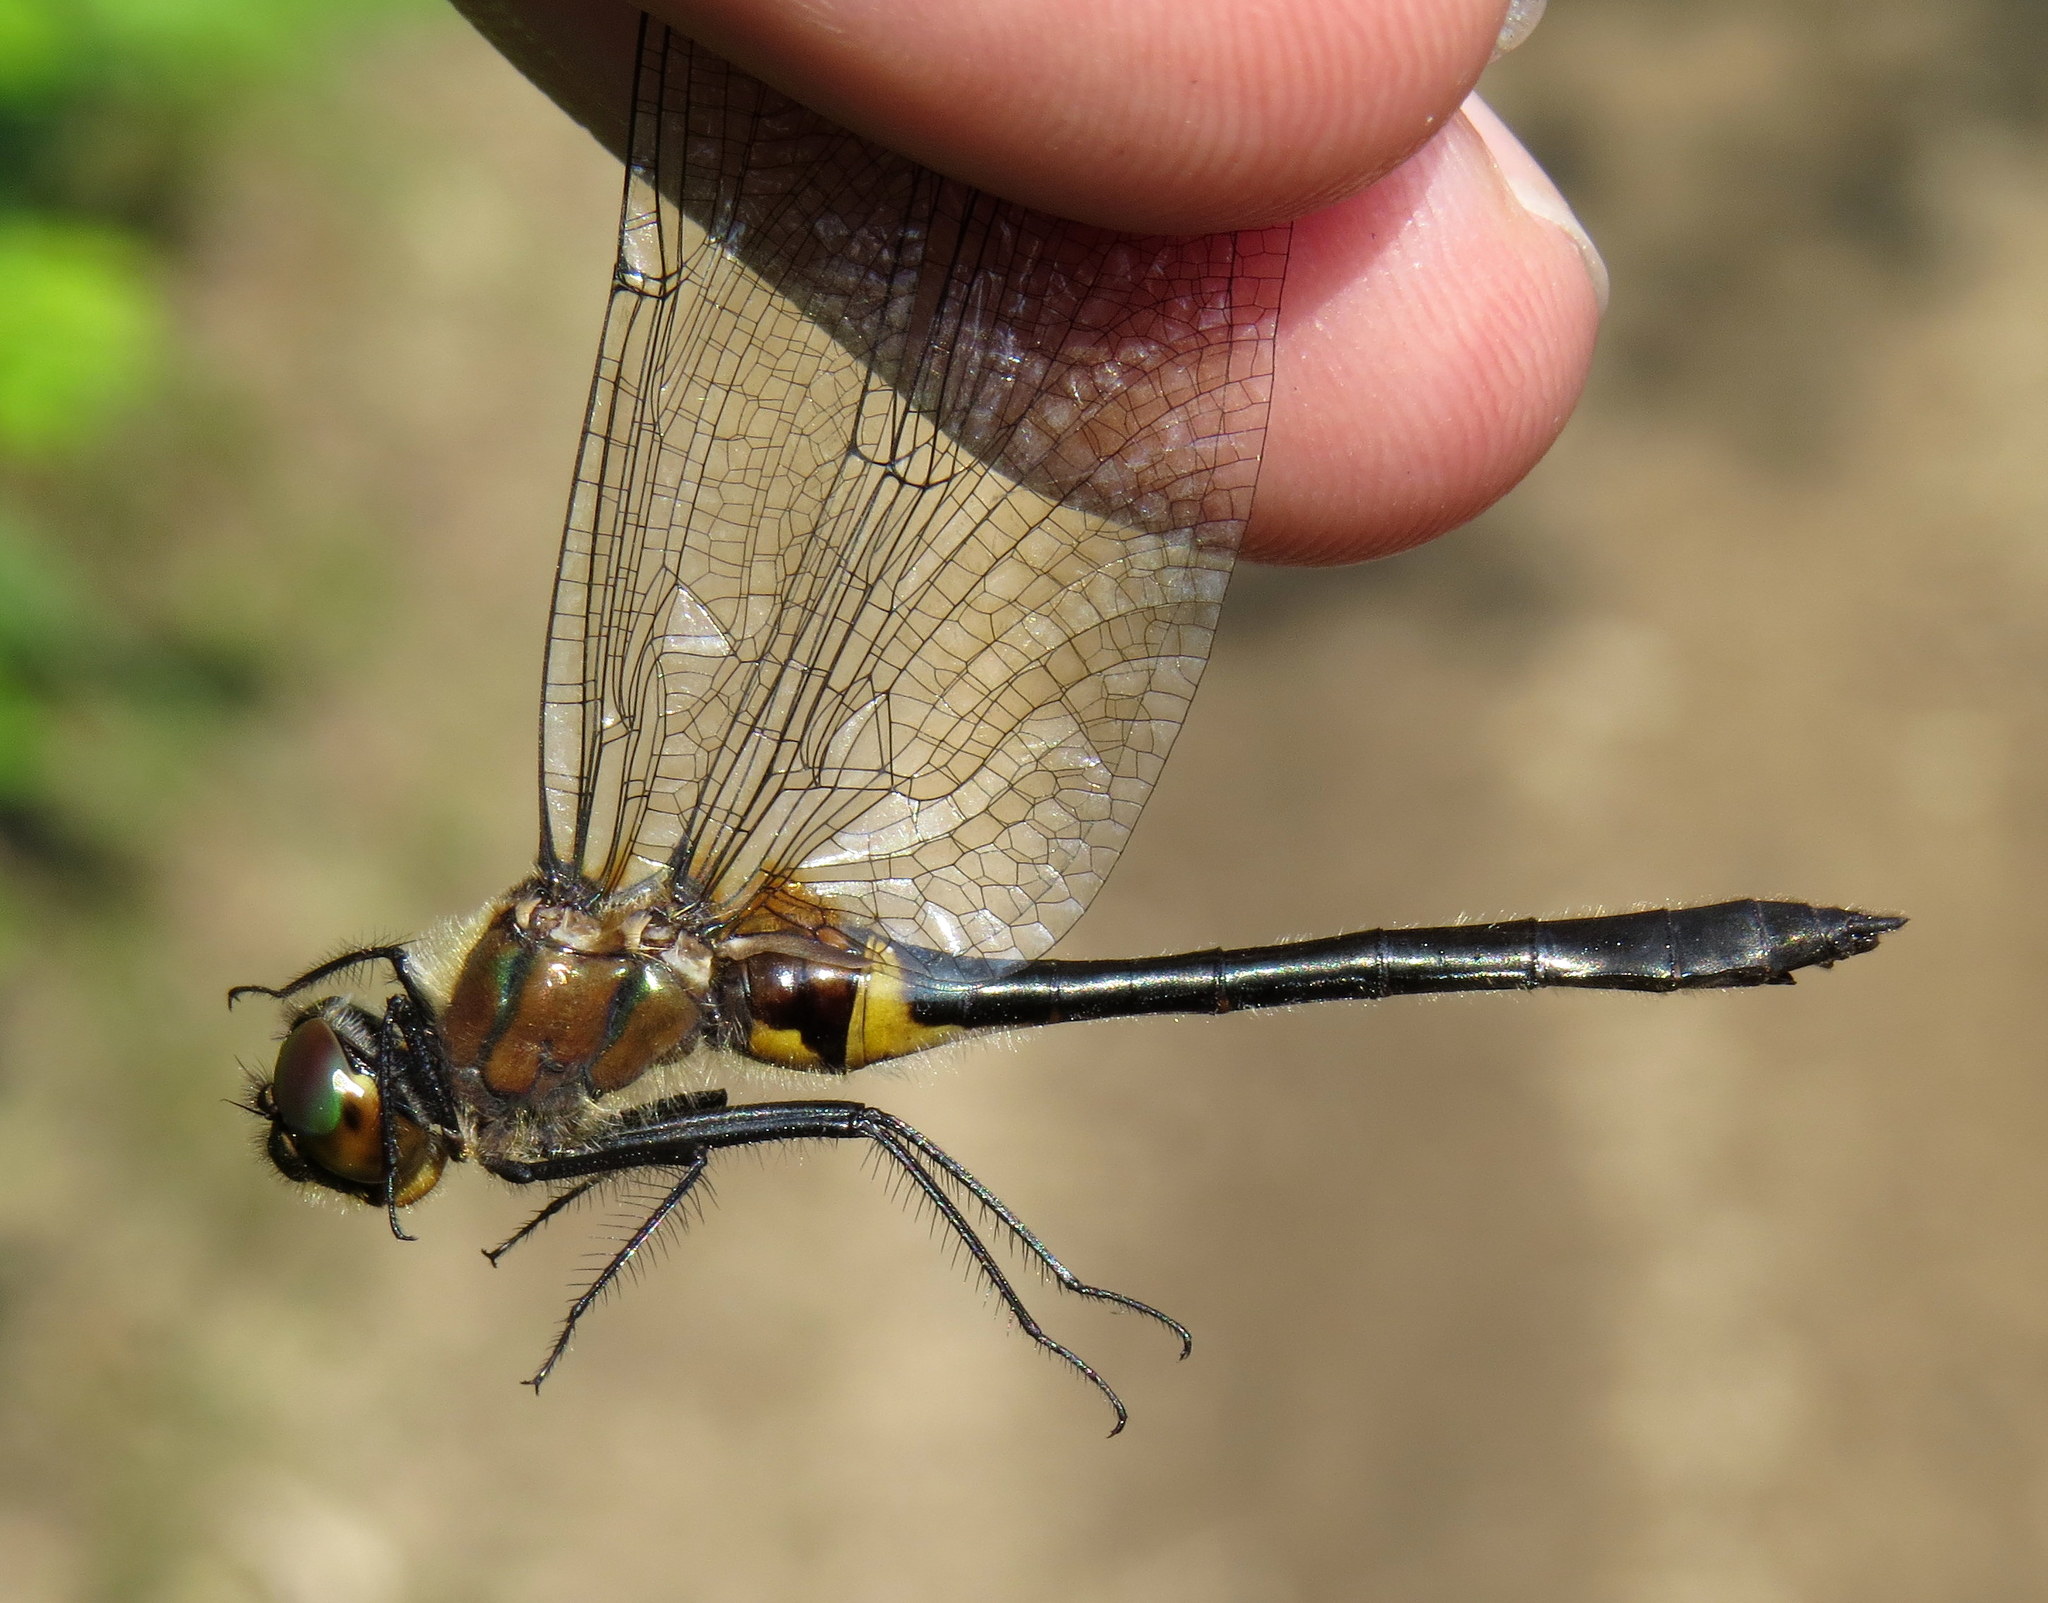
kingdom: Animalia
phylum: Arthropoda
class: Insecta
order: Odonata
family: Corduliidae
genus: Dorocordulia
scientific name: Dorocordulia libera
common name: Racket-tailed emerald
